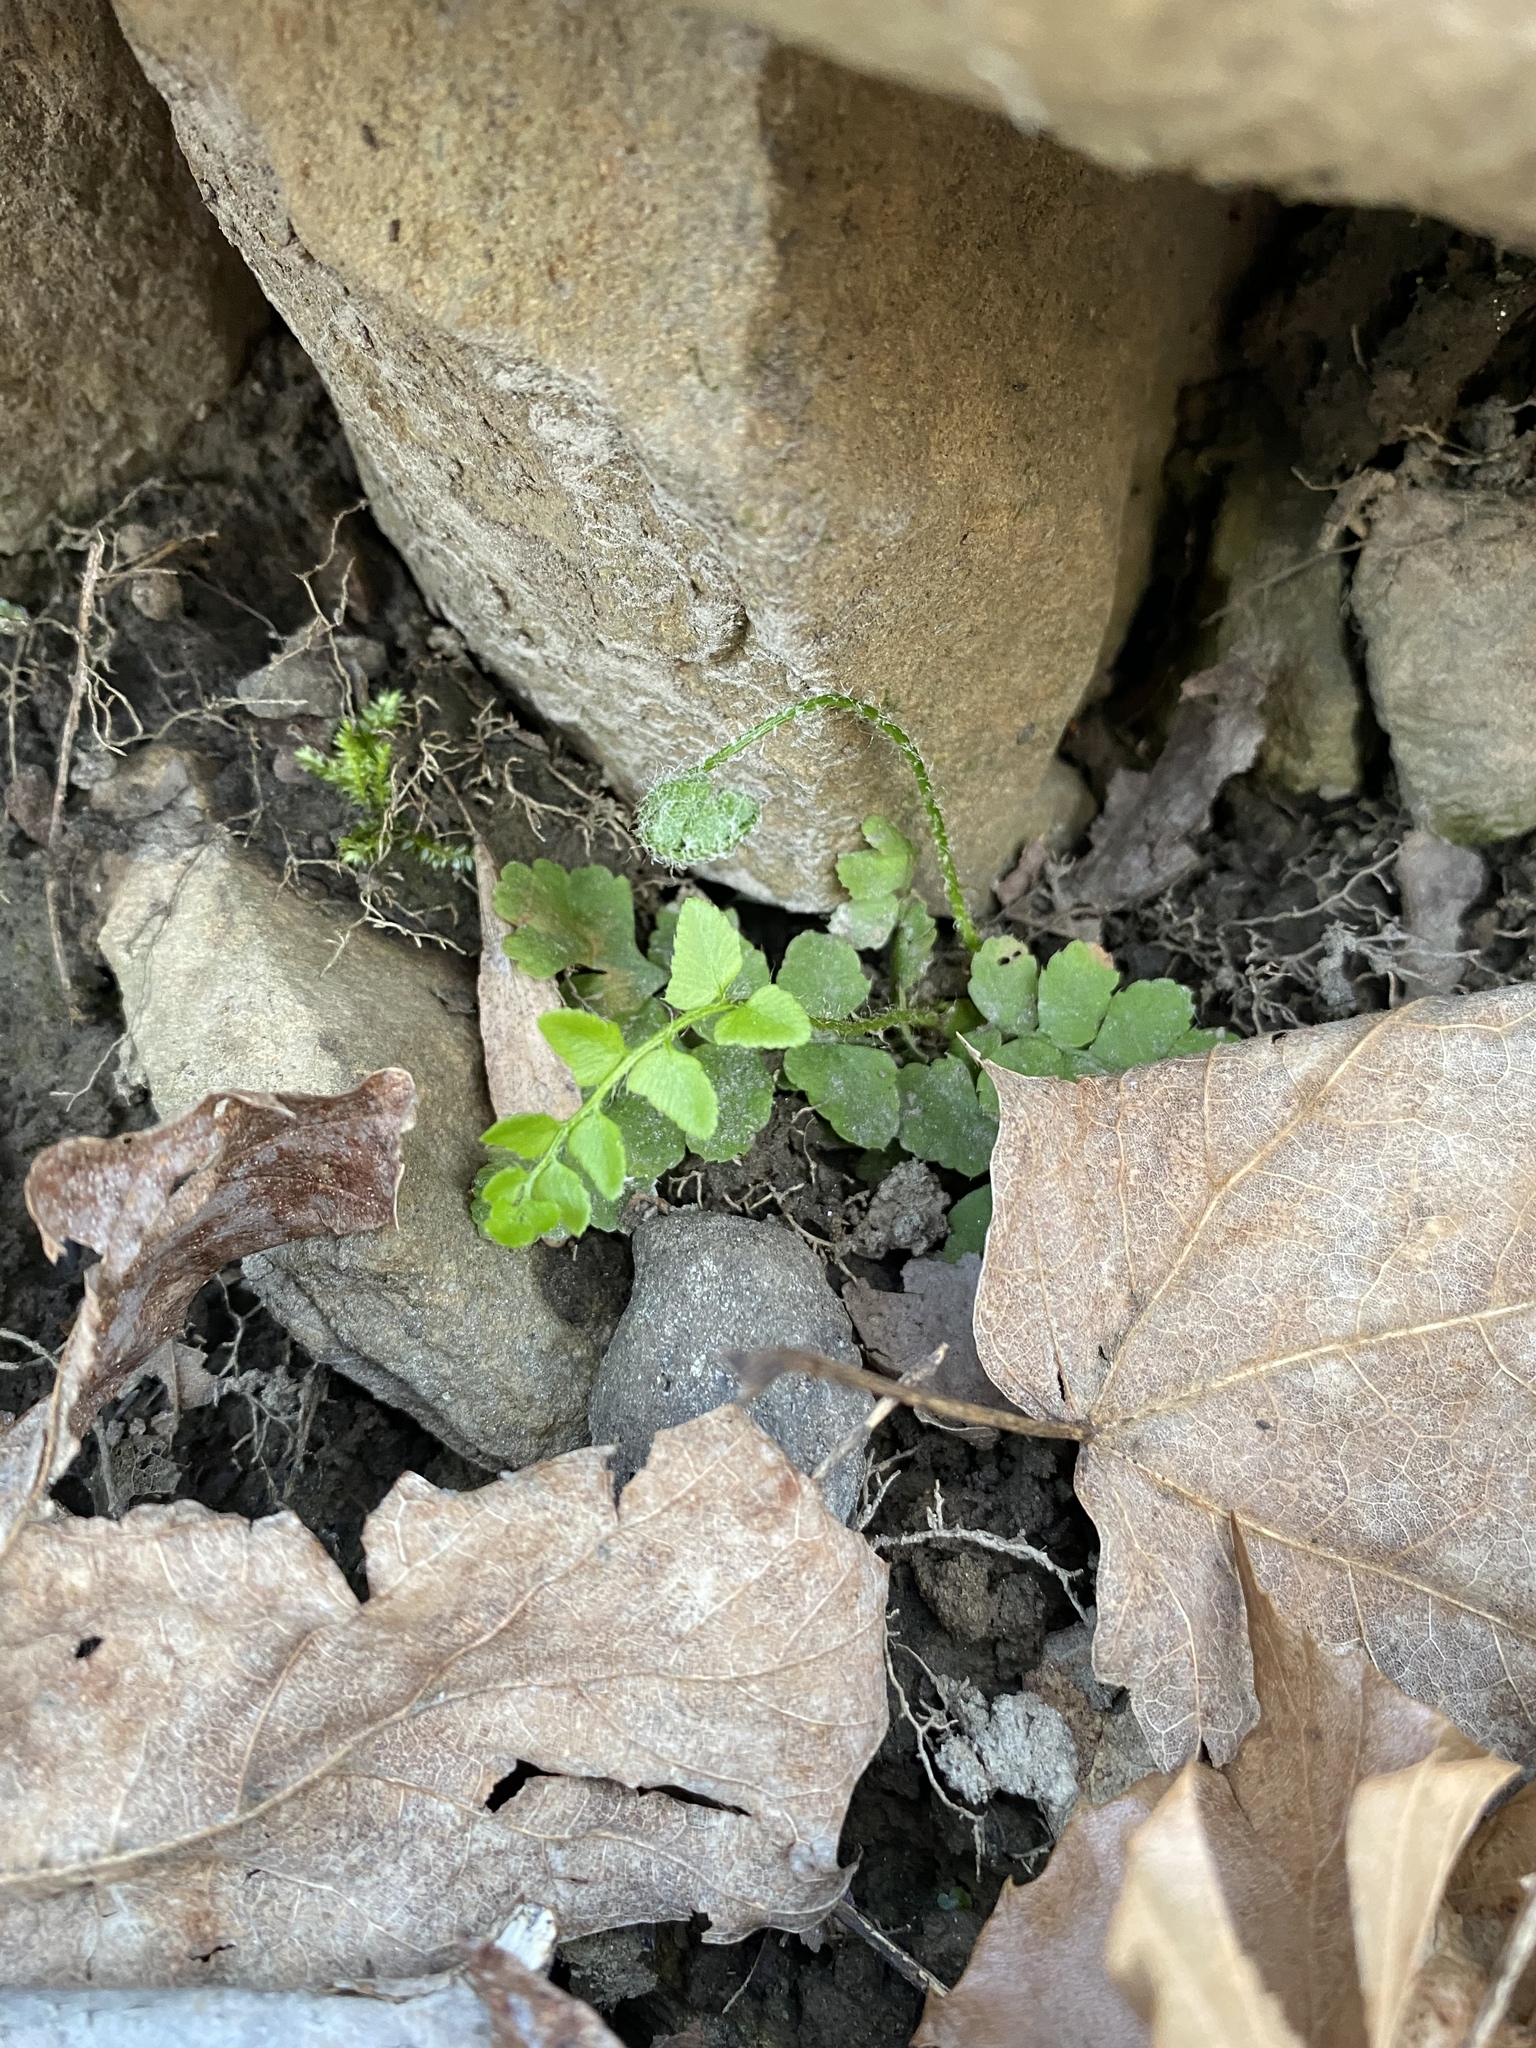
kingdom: Plantae
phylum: Tracheophyta
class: Polypodiopsida
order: Polypodiales
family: Dryopteridaceae
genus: Polystichum
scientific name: Polystichum acrostichoides
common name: Christmas fern
